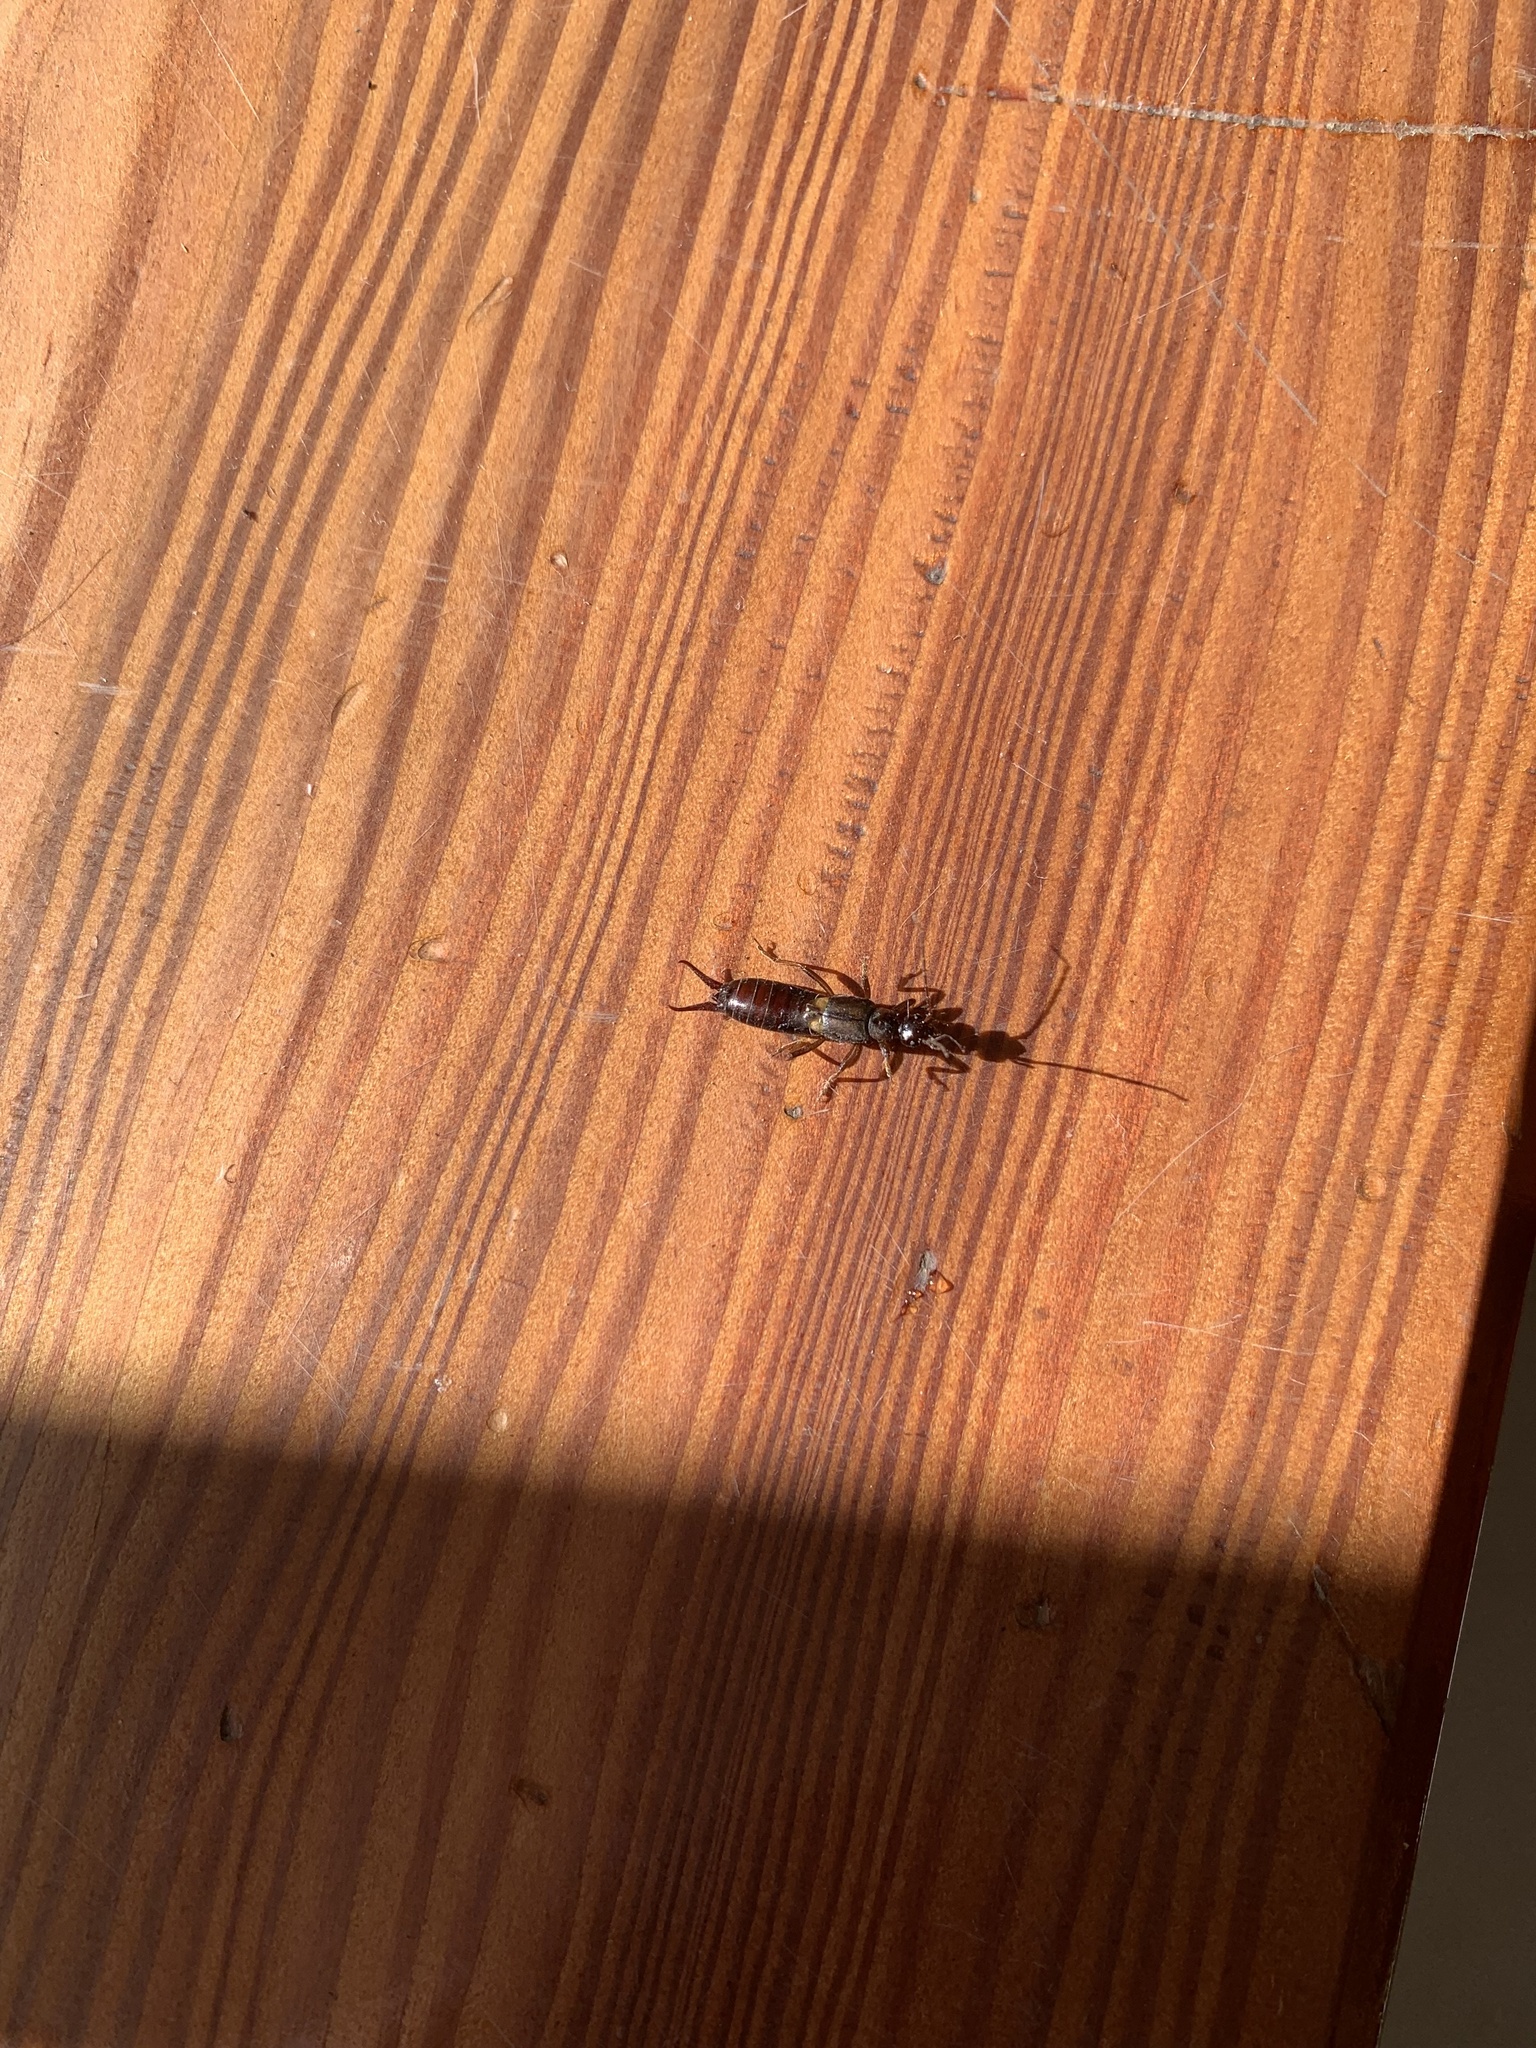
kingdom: Animalia
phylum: Arthropoda
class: Insecta
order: Dermaptera
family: Forficulidae
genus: Anechura
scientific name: Anechura harmandi
